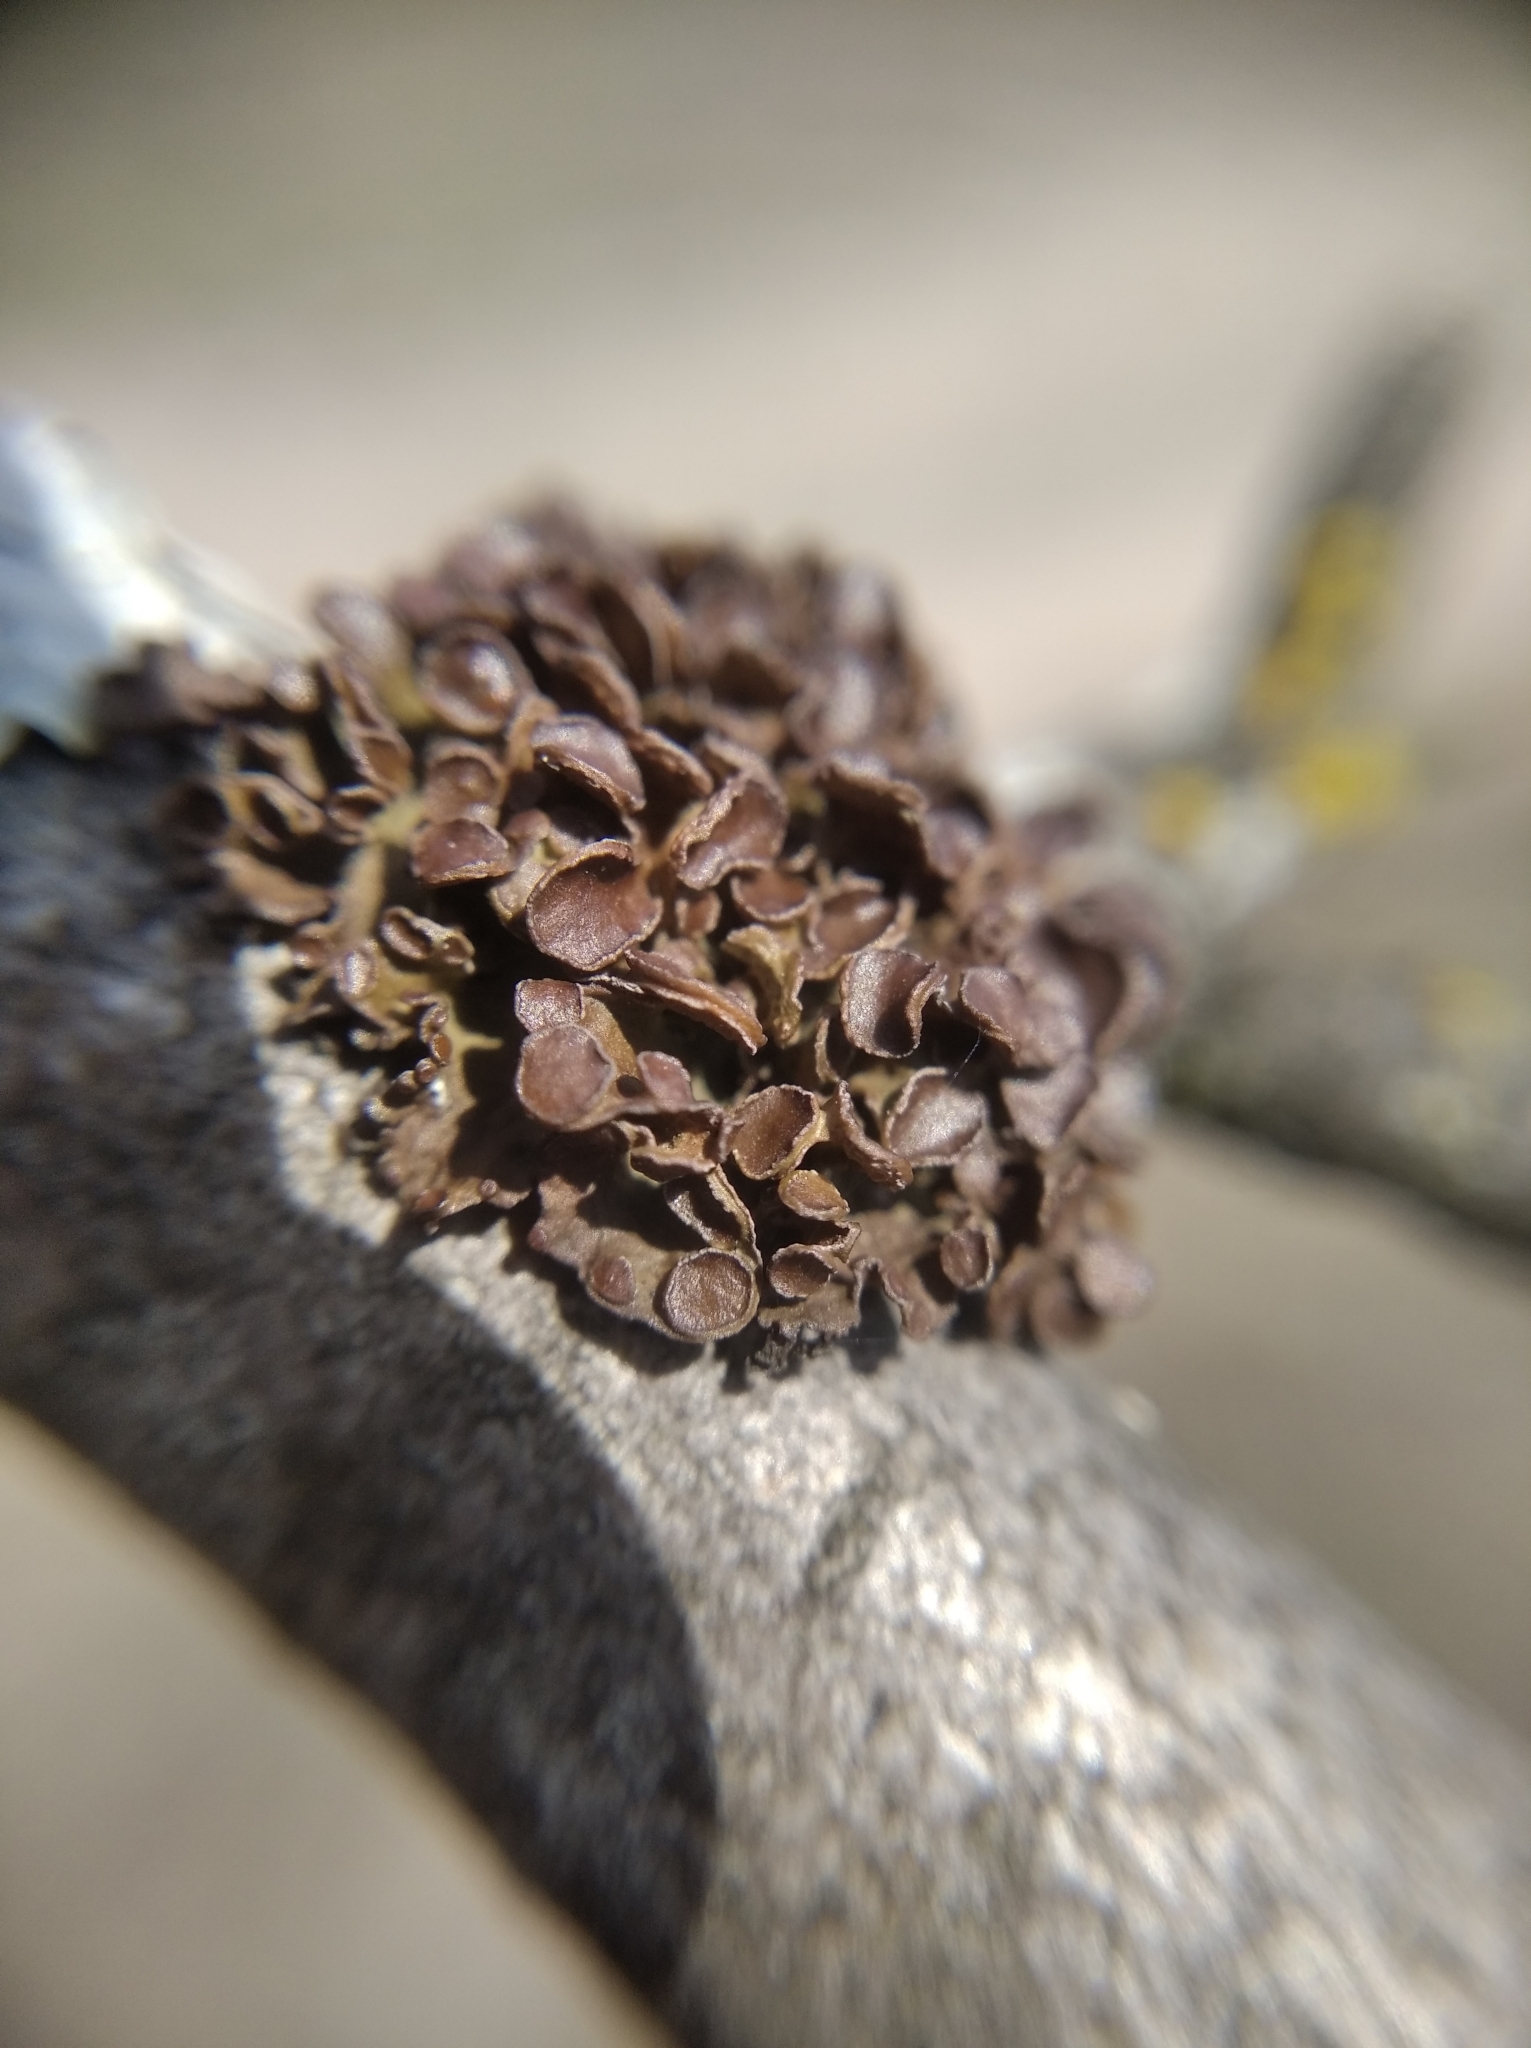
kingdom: Fungi
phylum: Ascomycota
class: Lecanoromycetes
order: Lecanorales
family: Parmeliaceae
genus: Cetraria
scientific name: Cetraria sepincola
